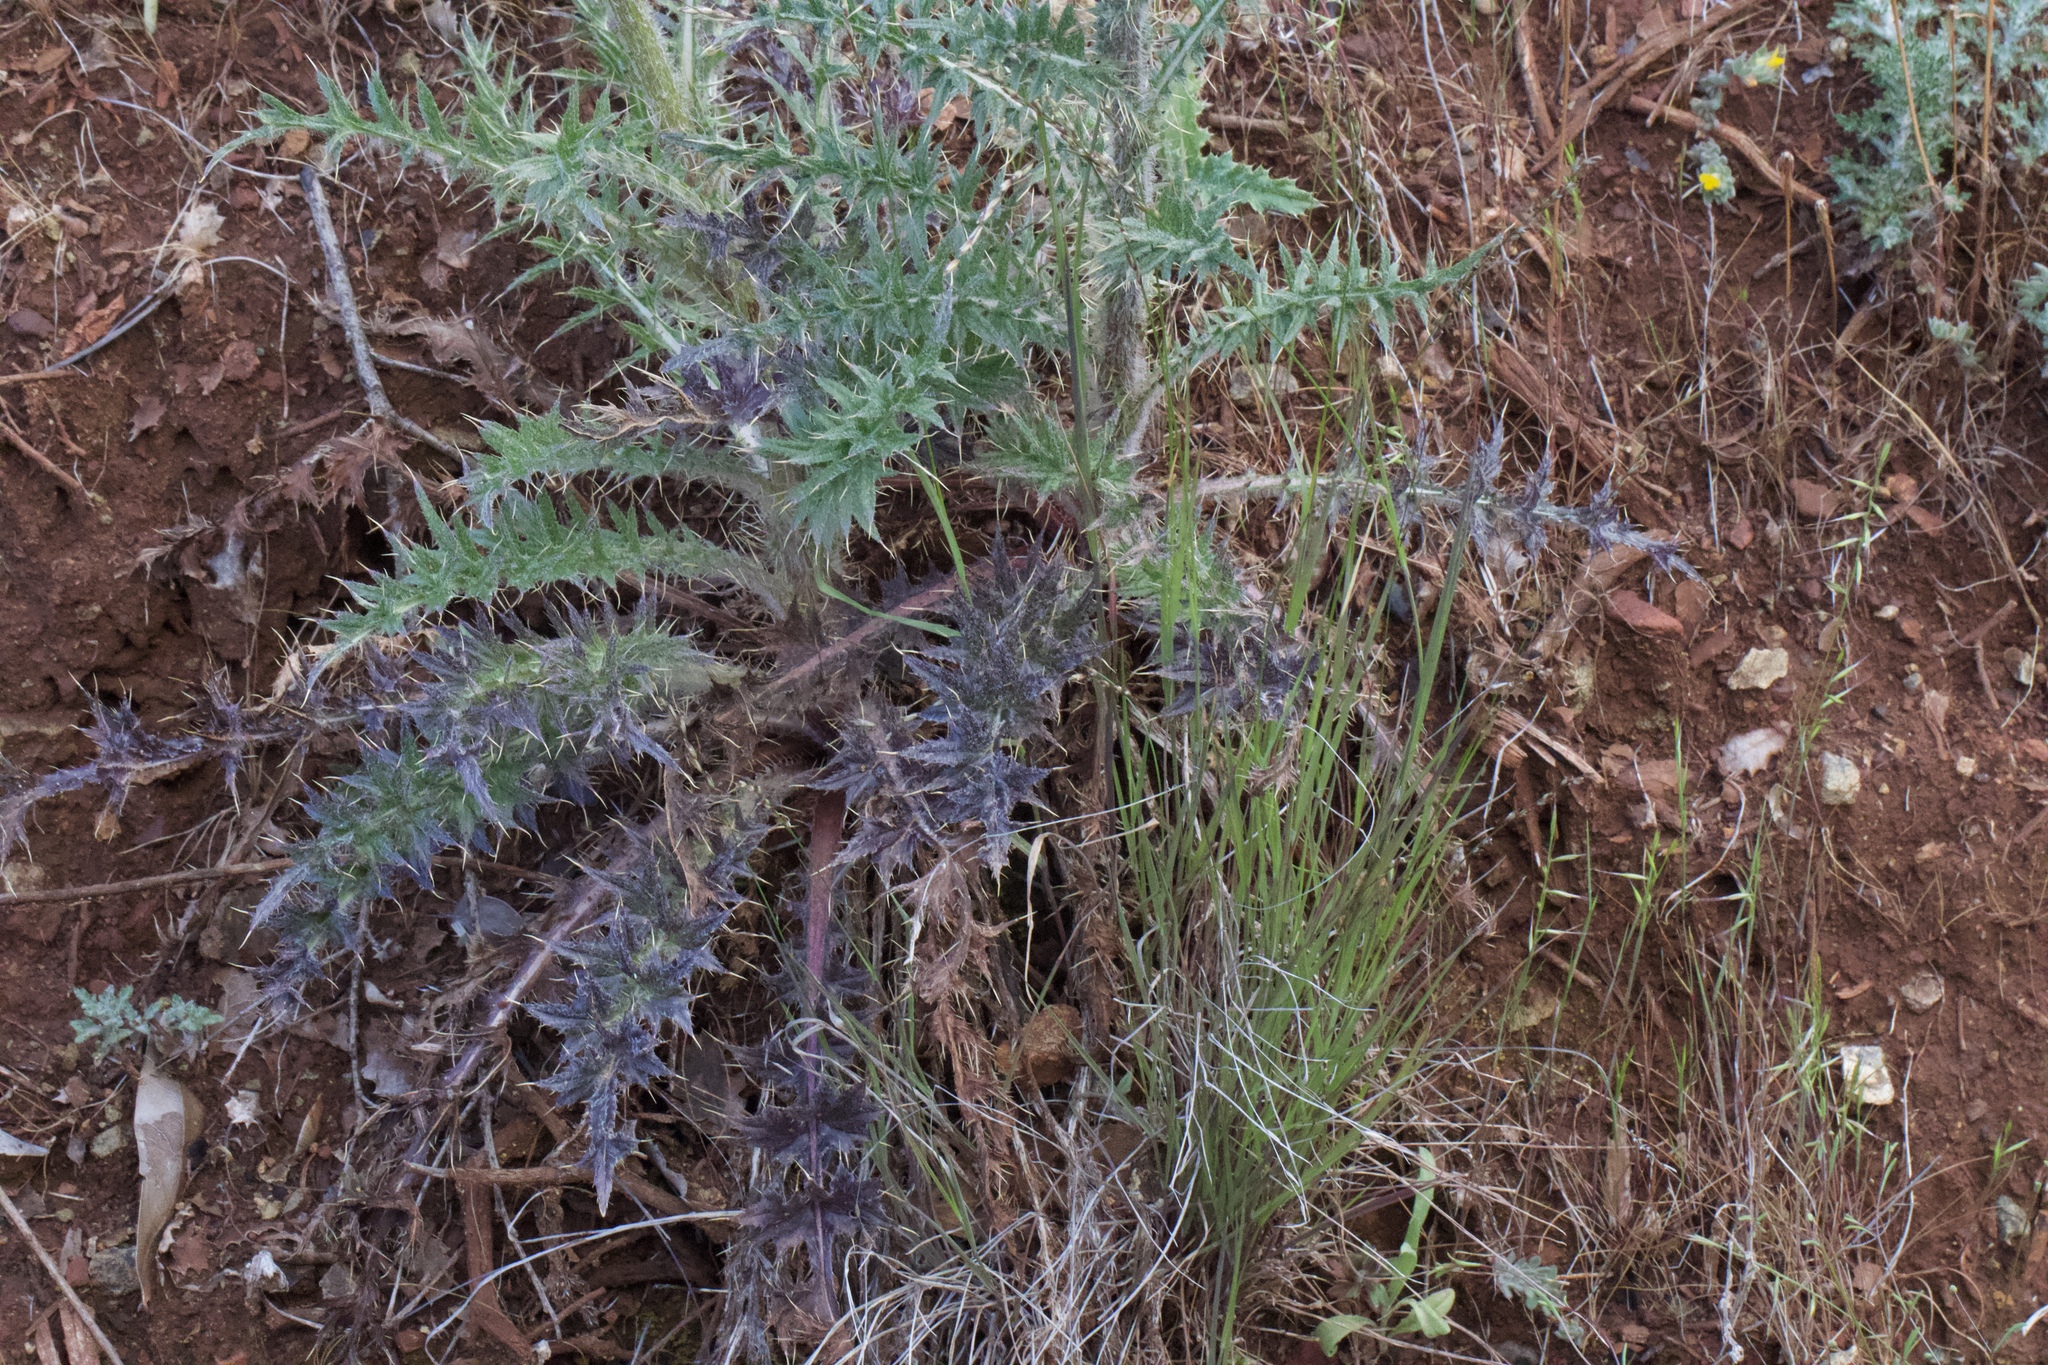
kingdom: Plantae
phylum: Tracheophyta
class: Magnoliopsida
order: Asterales
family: Asteraceae
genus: Cirsium
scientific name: Cirsium cymosum
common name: Peregrine thistle
